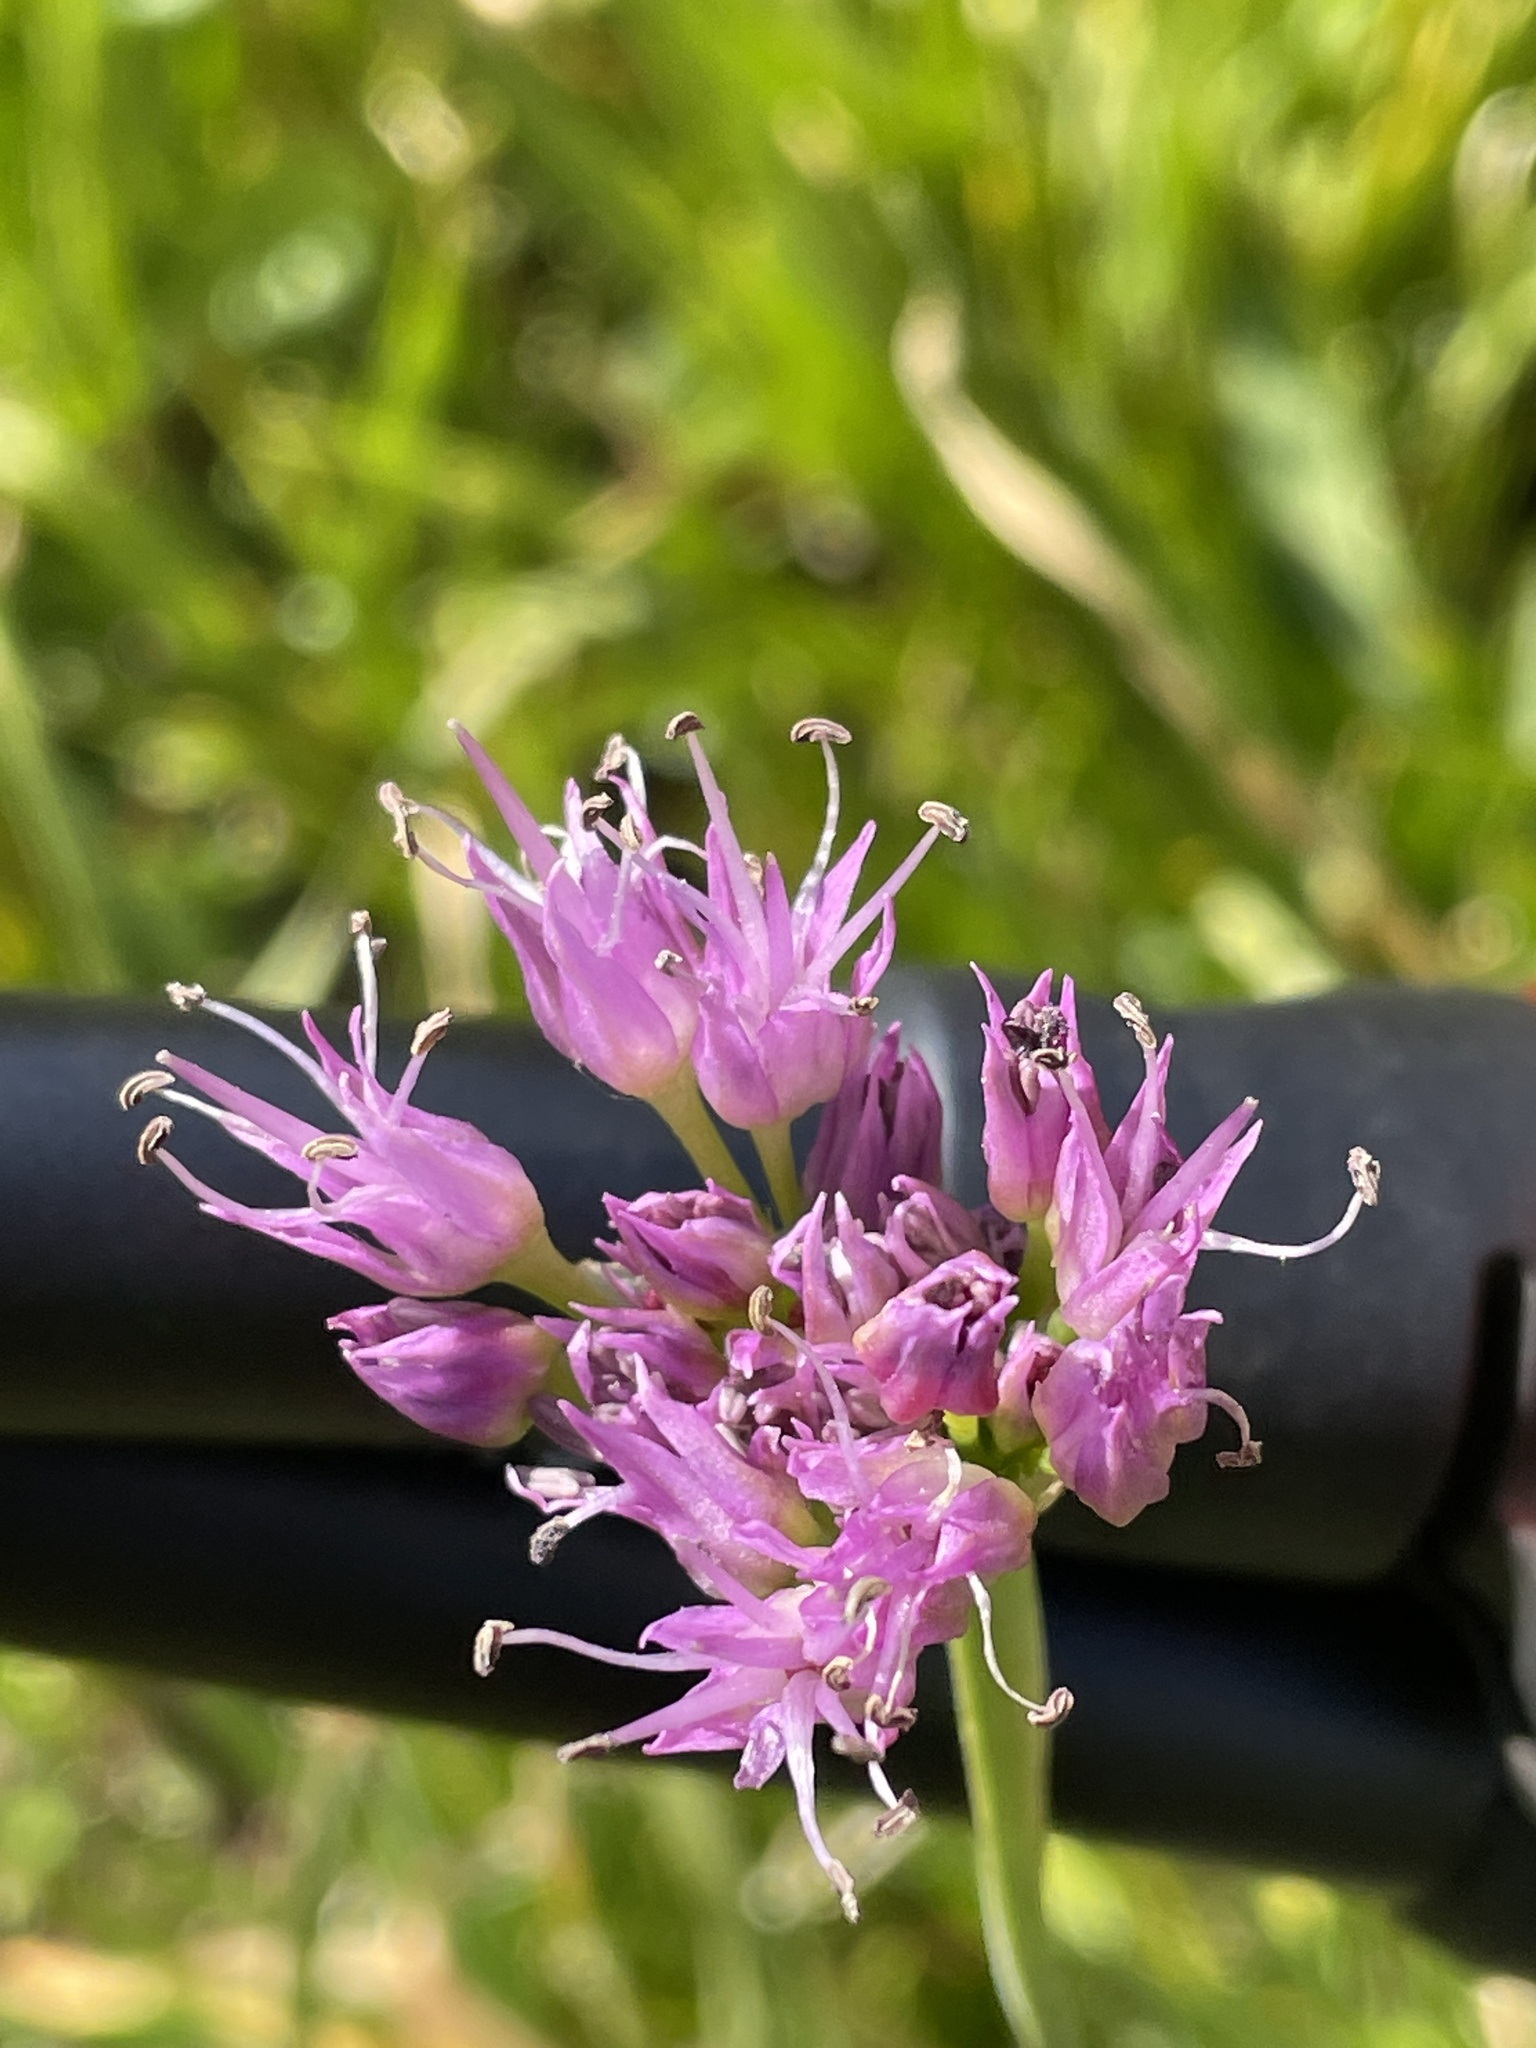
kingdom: Plantae
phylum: Tracheophyta
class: Liliopsida
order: Asparagales
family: Amaryllidaceae
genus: Allium
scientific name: Allium validum
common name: Pacific mountain onion
